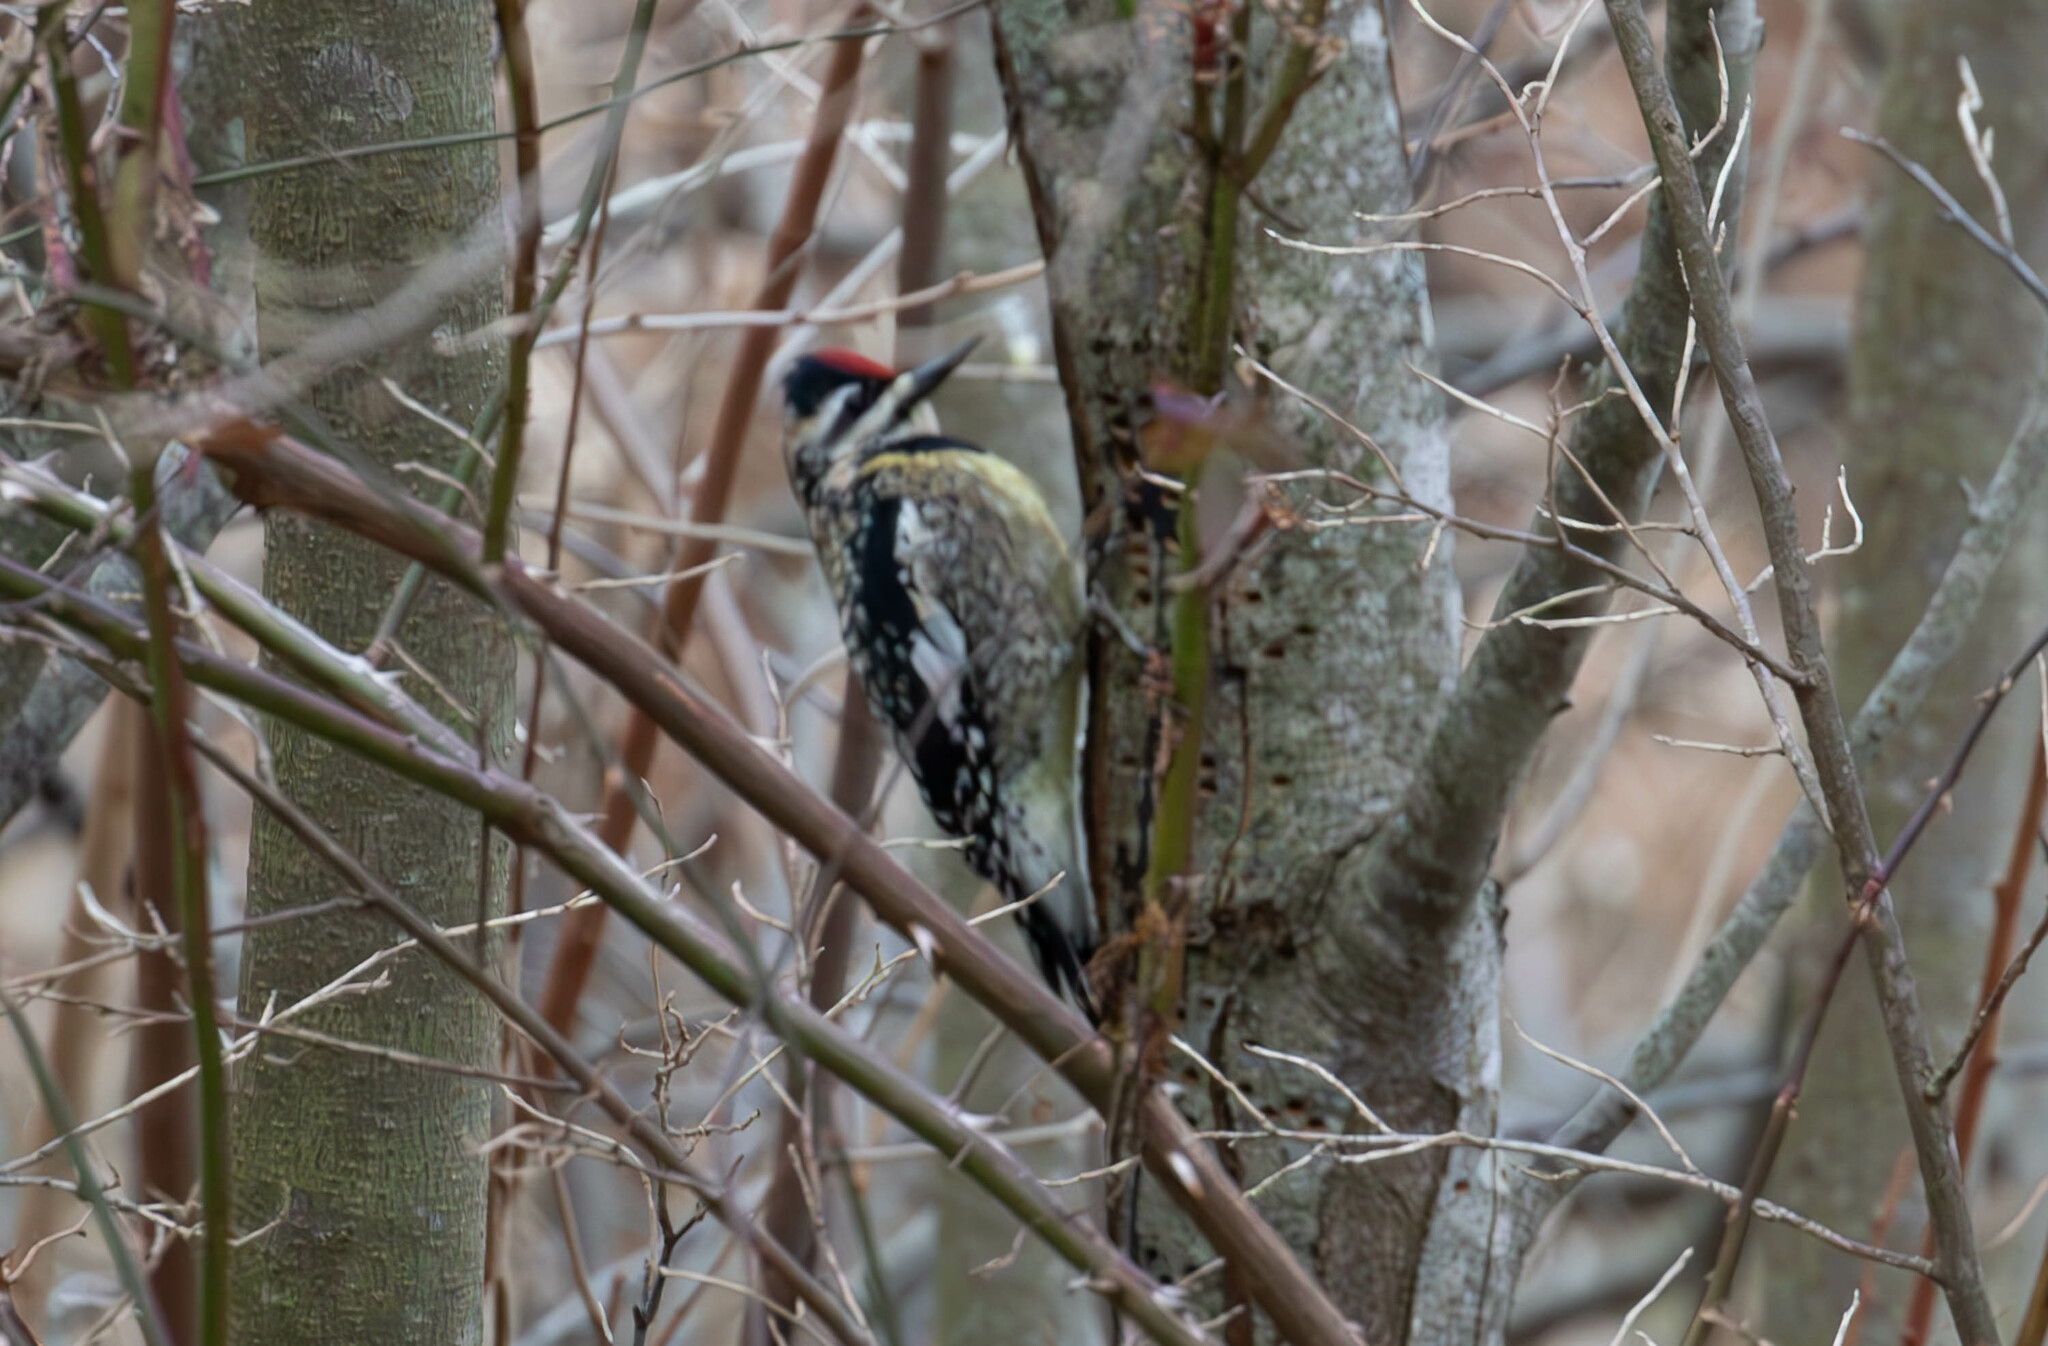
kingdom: Animalia
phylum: Chordata
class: Aves
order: Piciformes
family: Picidae
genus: Sphyrapicus
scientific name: Sphyrapicus varius
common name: Yellow-bellied sapsucker
